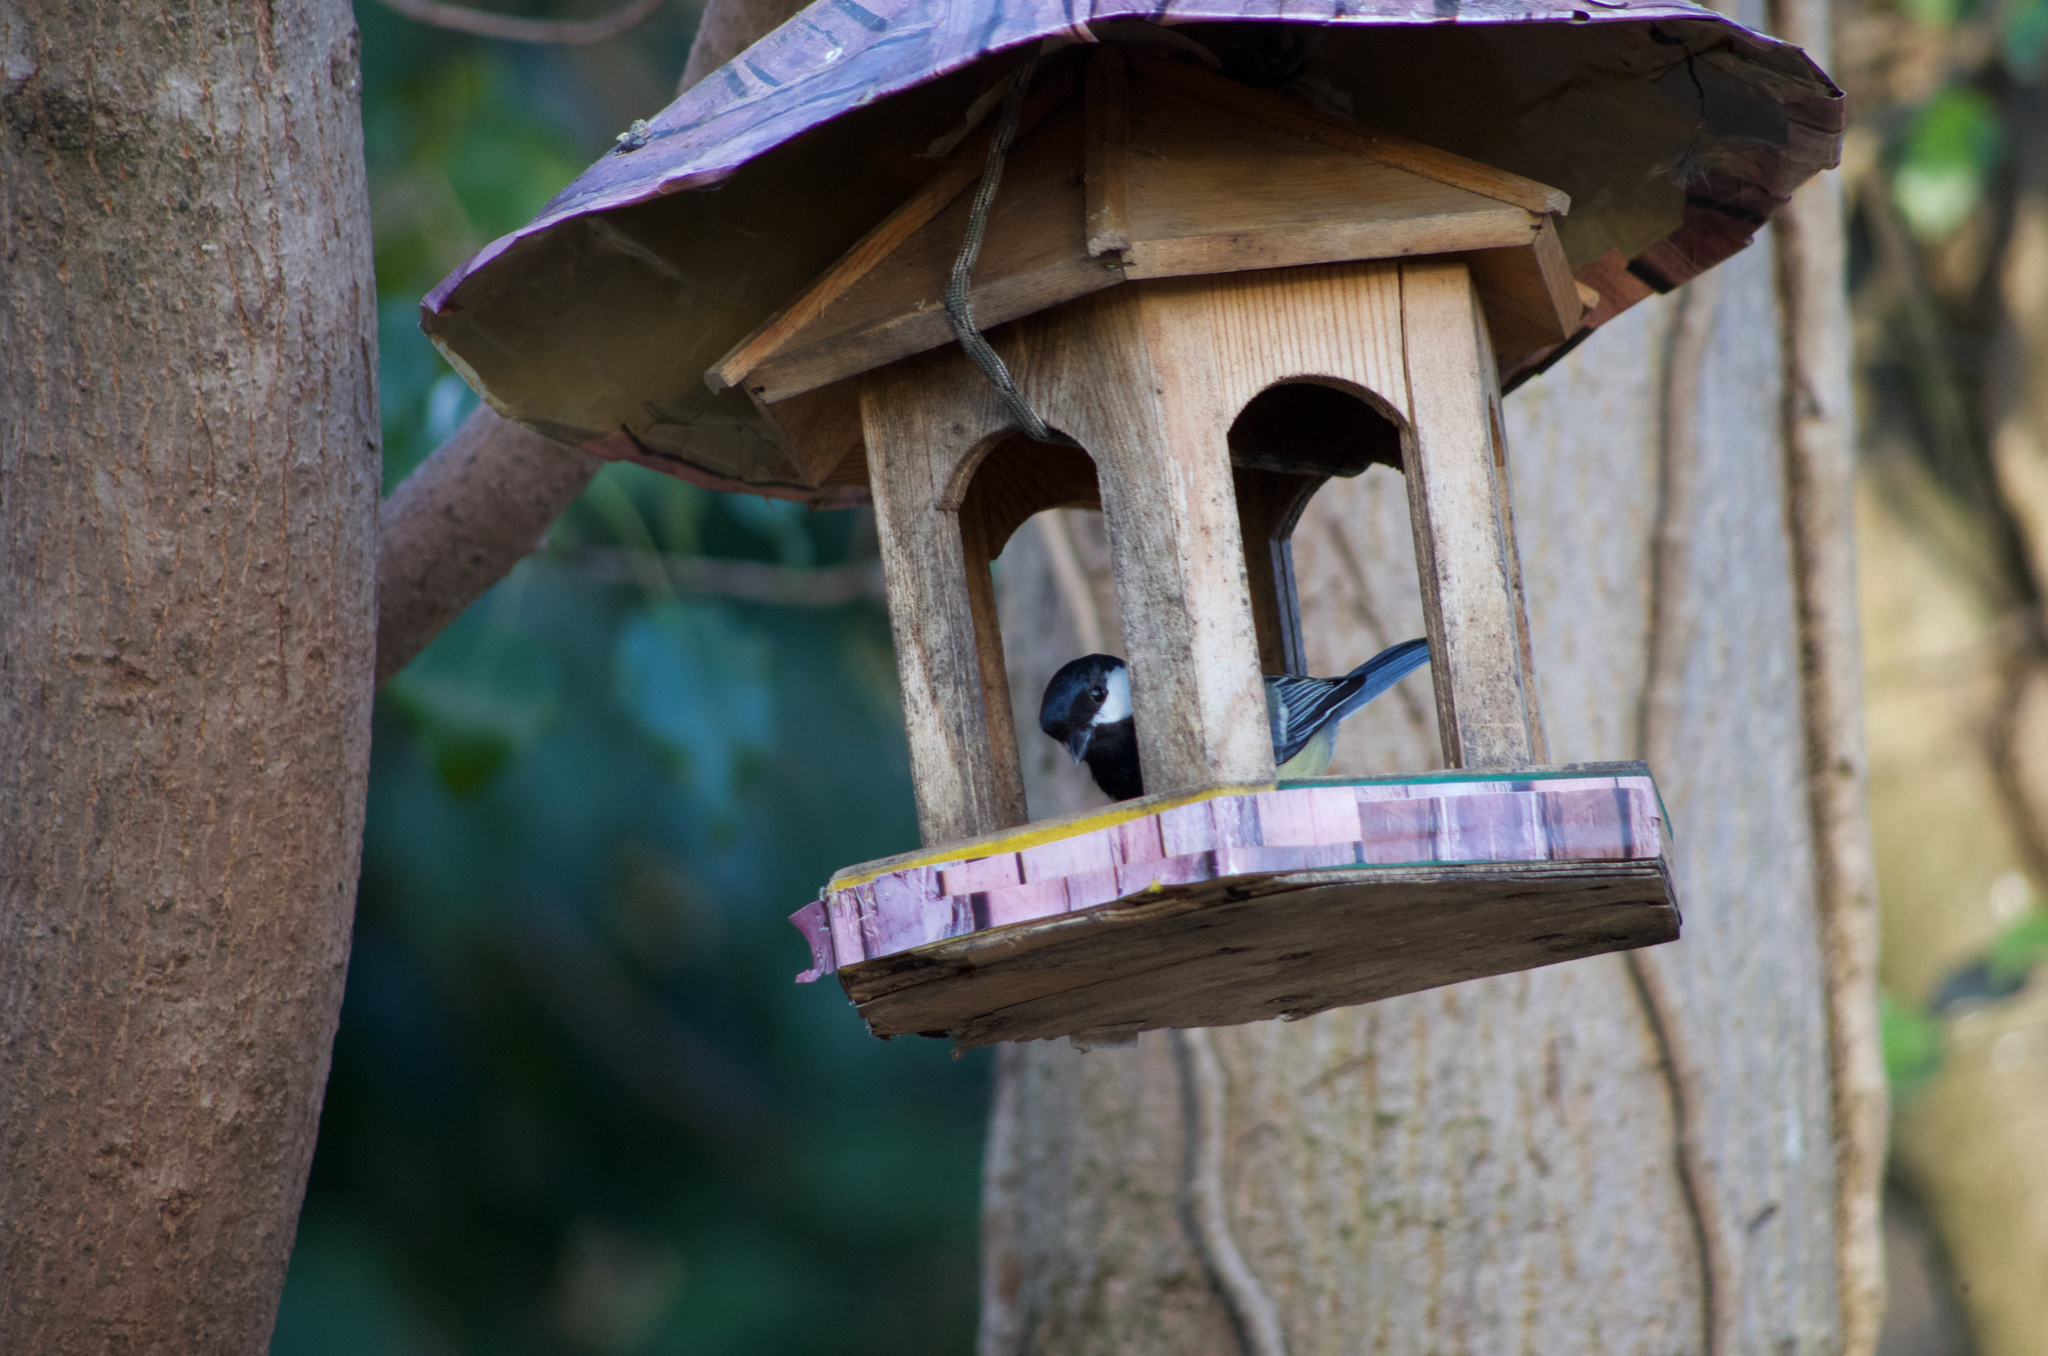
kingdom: Animalia
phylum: Chordata
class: Aves
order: Passeriformes
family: Paridae
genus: Parus
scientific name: Parus major
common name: Great tit
